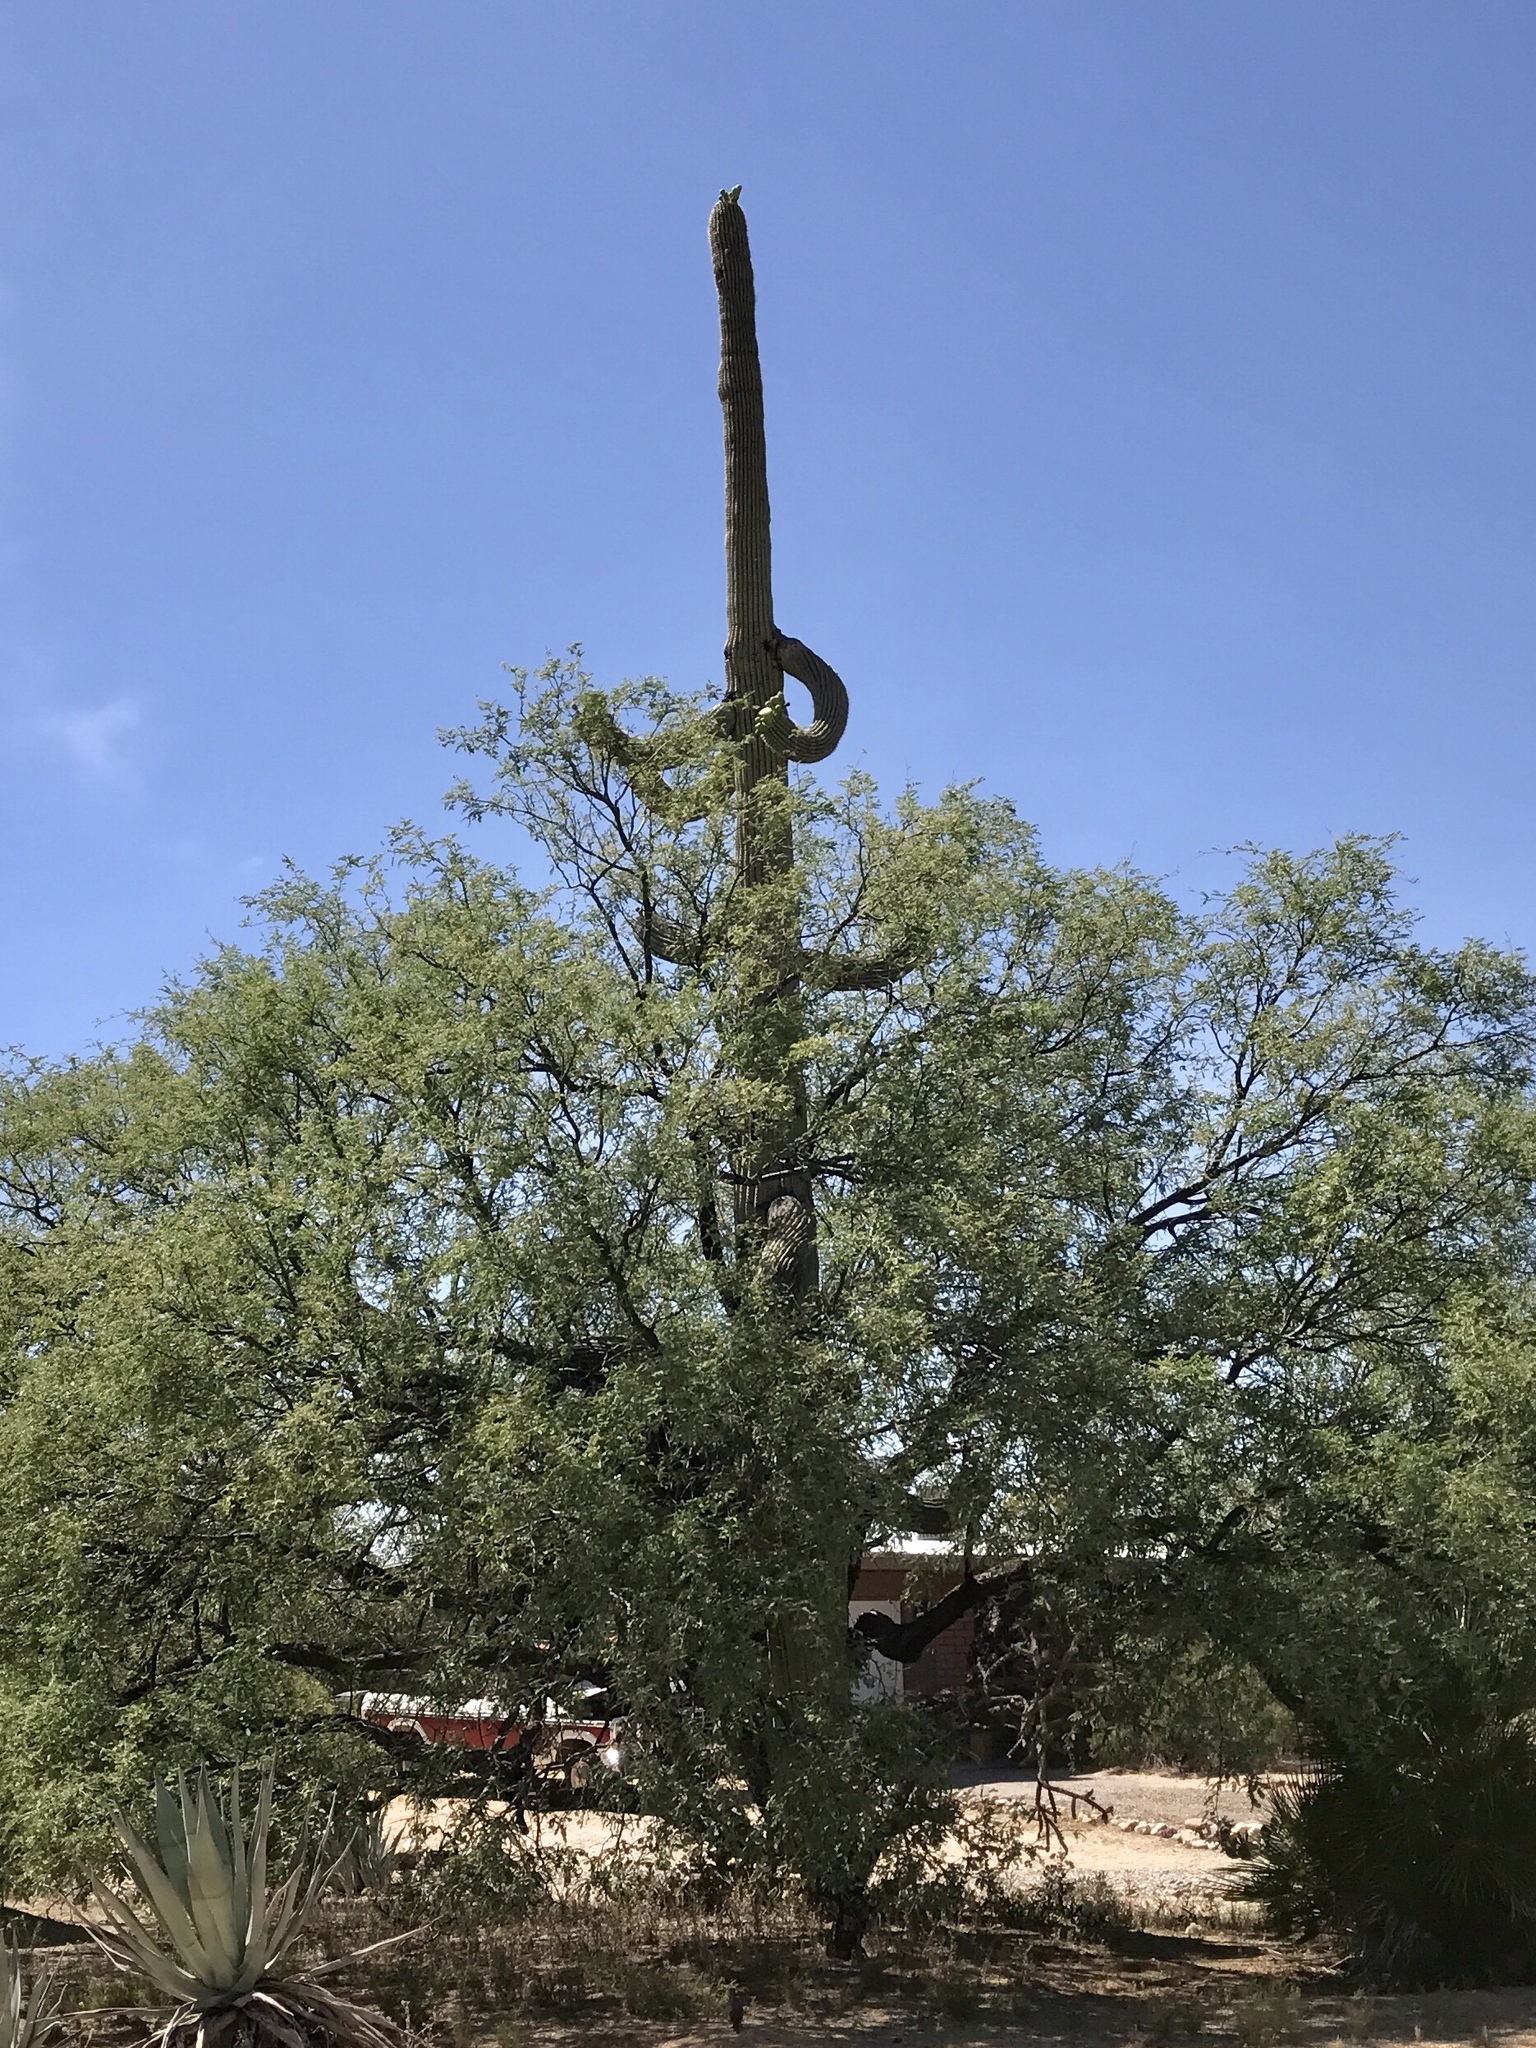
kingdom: Plantae
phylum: Tracheophyta
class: Magnoliopsida
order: Caryophyllales
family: Cactaceae
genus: Carnegiea
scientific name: Carnegiea gigantea
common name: Saguaro
